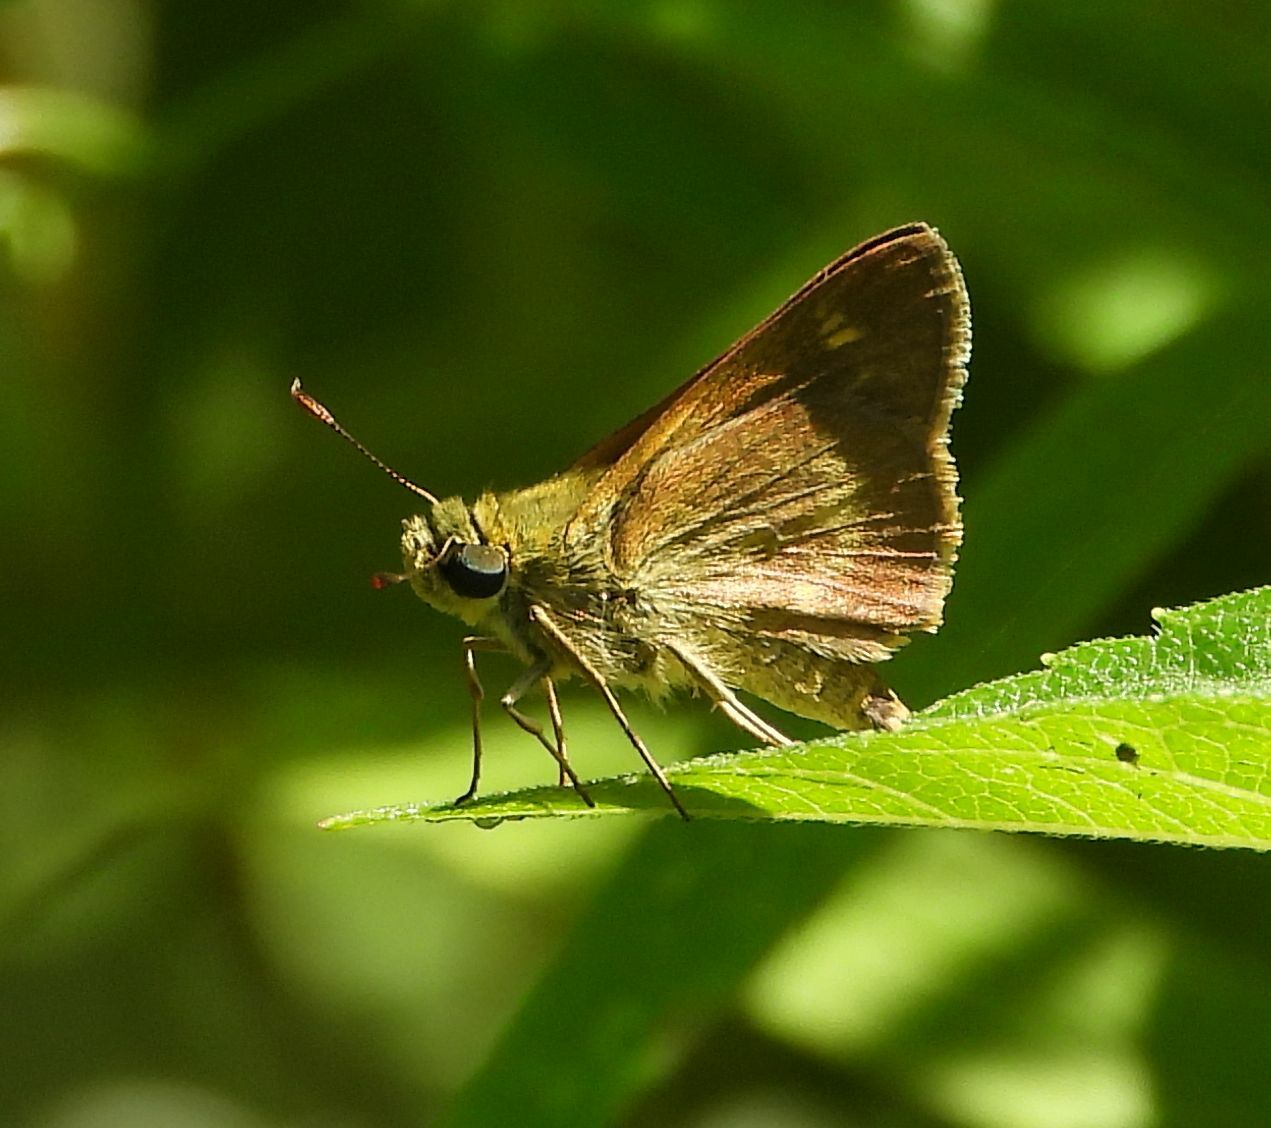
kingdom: Animalia
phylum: Arthropoda
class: Insecta
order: Lepidoptera
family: Hesperiidae
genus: Polites
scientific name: Polites egeremet
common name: Northern broken-dash
